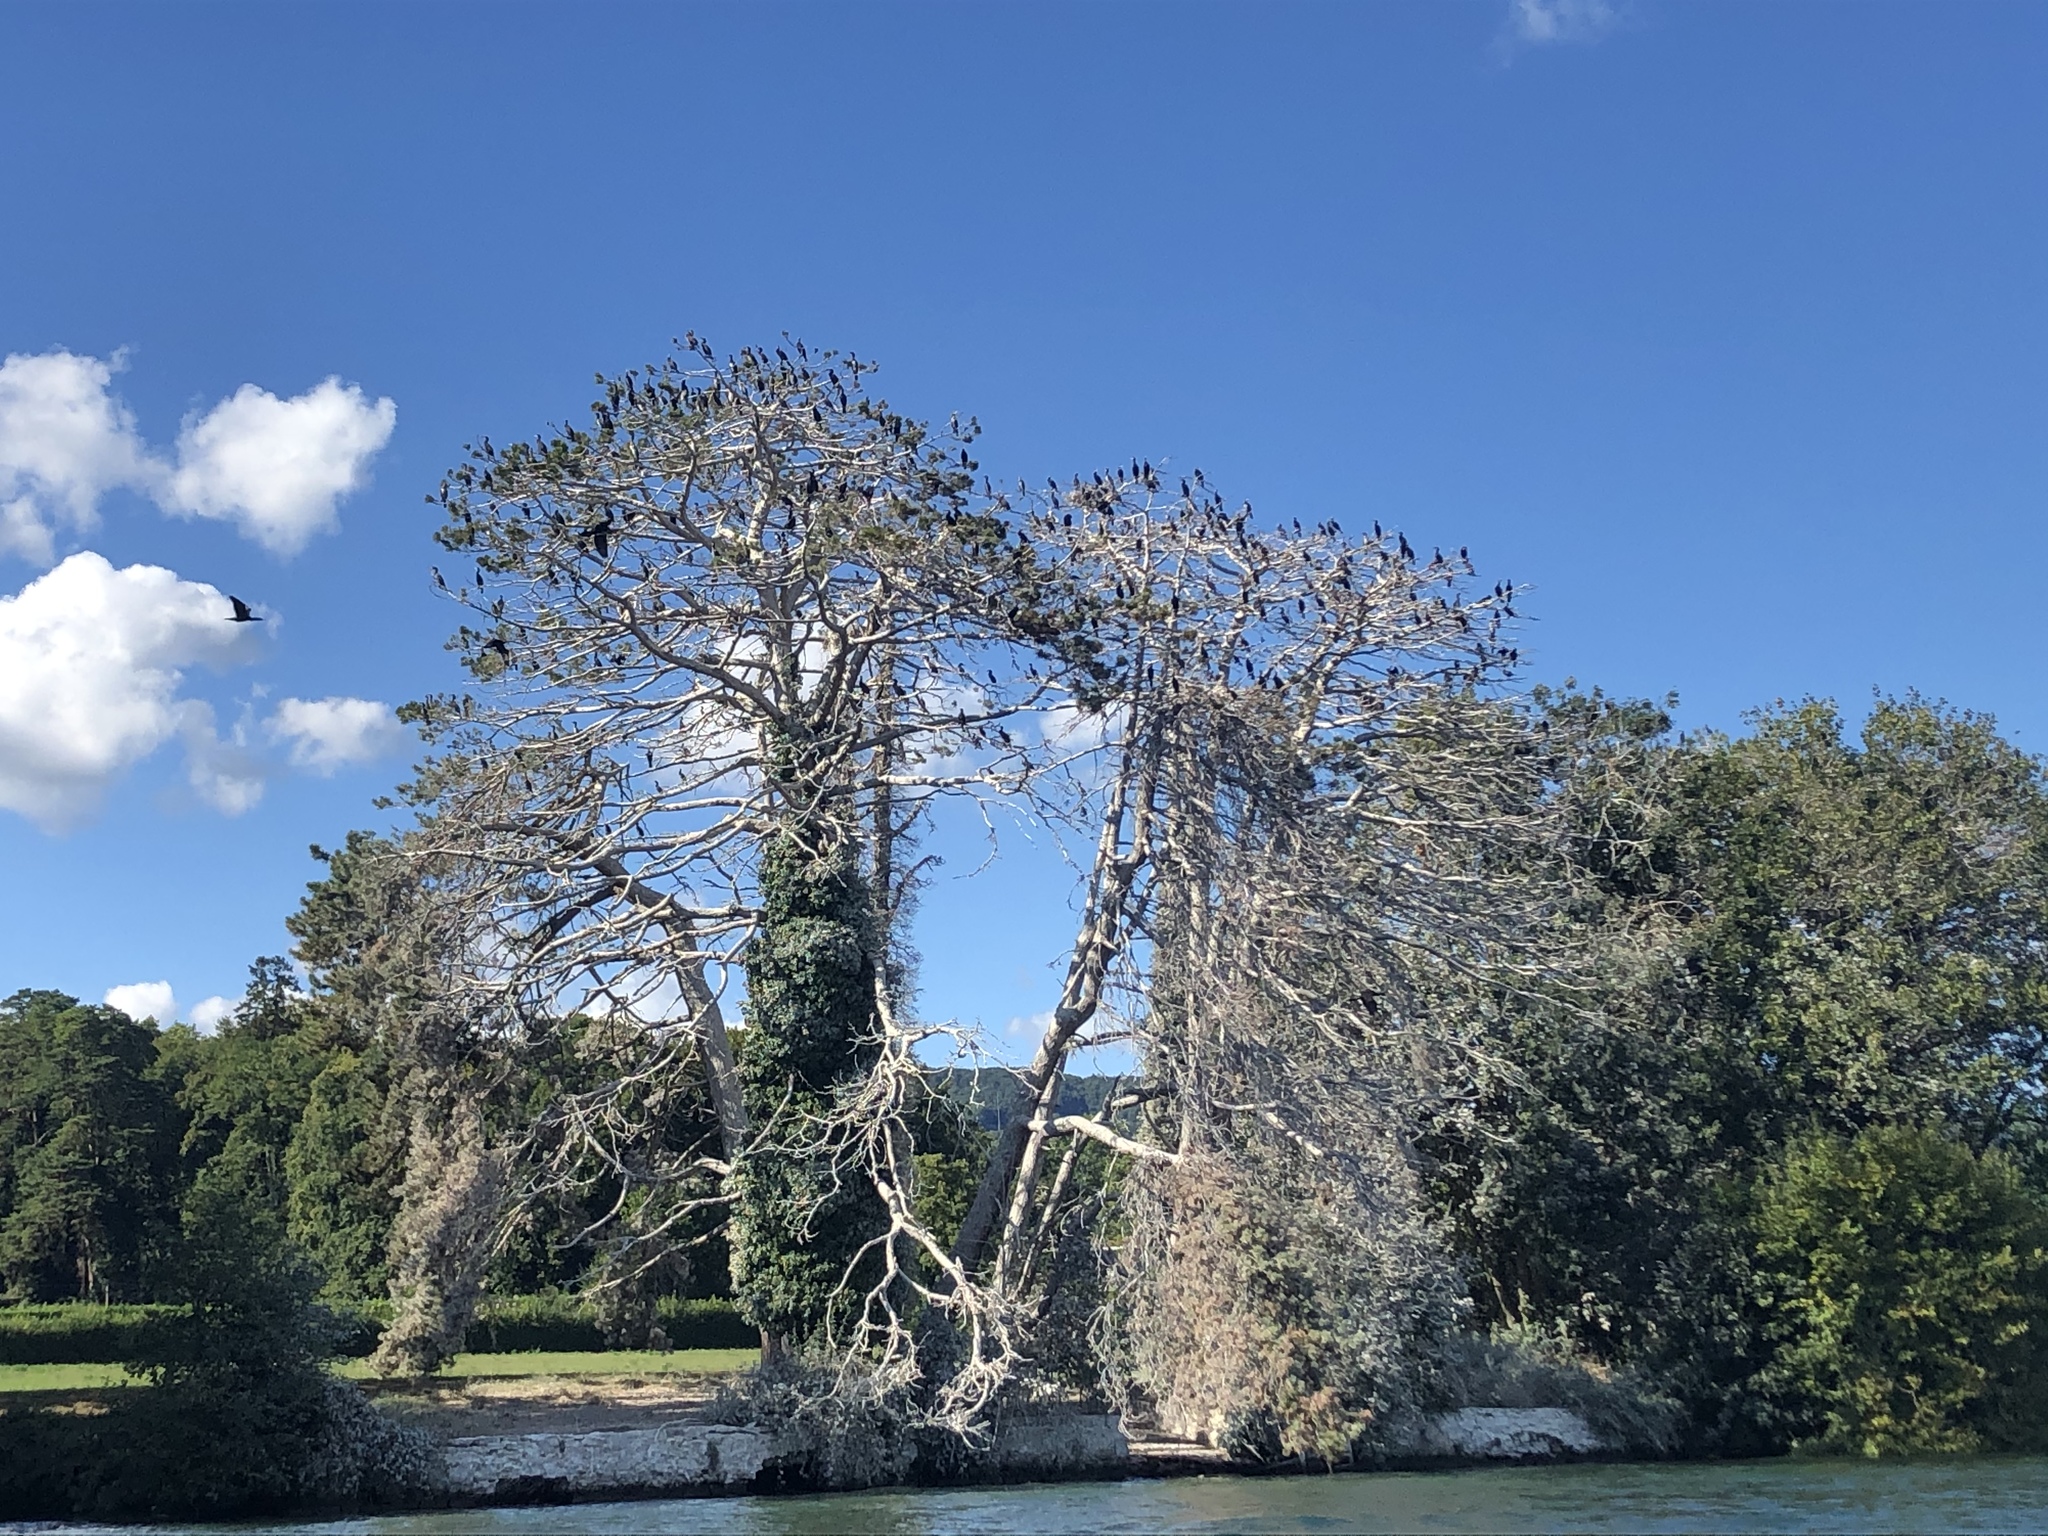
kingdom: Animalia
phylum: Chordata
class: Aves
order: Suliformes
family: Phalacrocoracidae
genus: Phalacrocorax
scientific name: Phalacrocorax carbo
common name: Great cormorant
